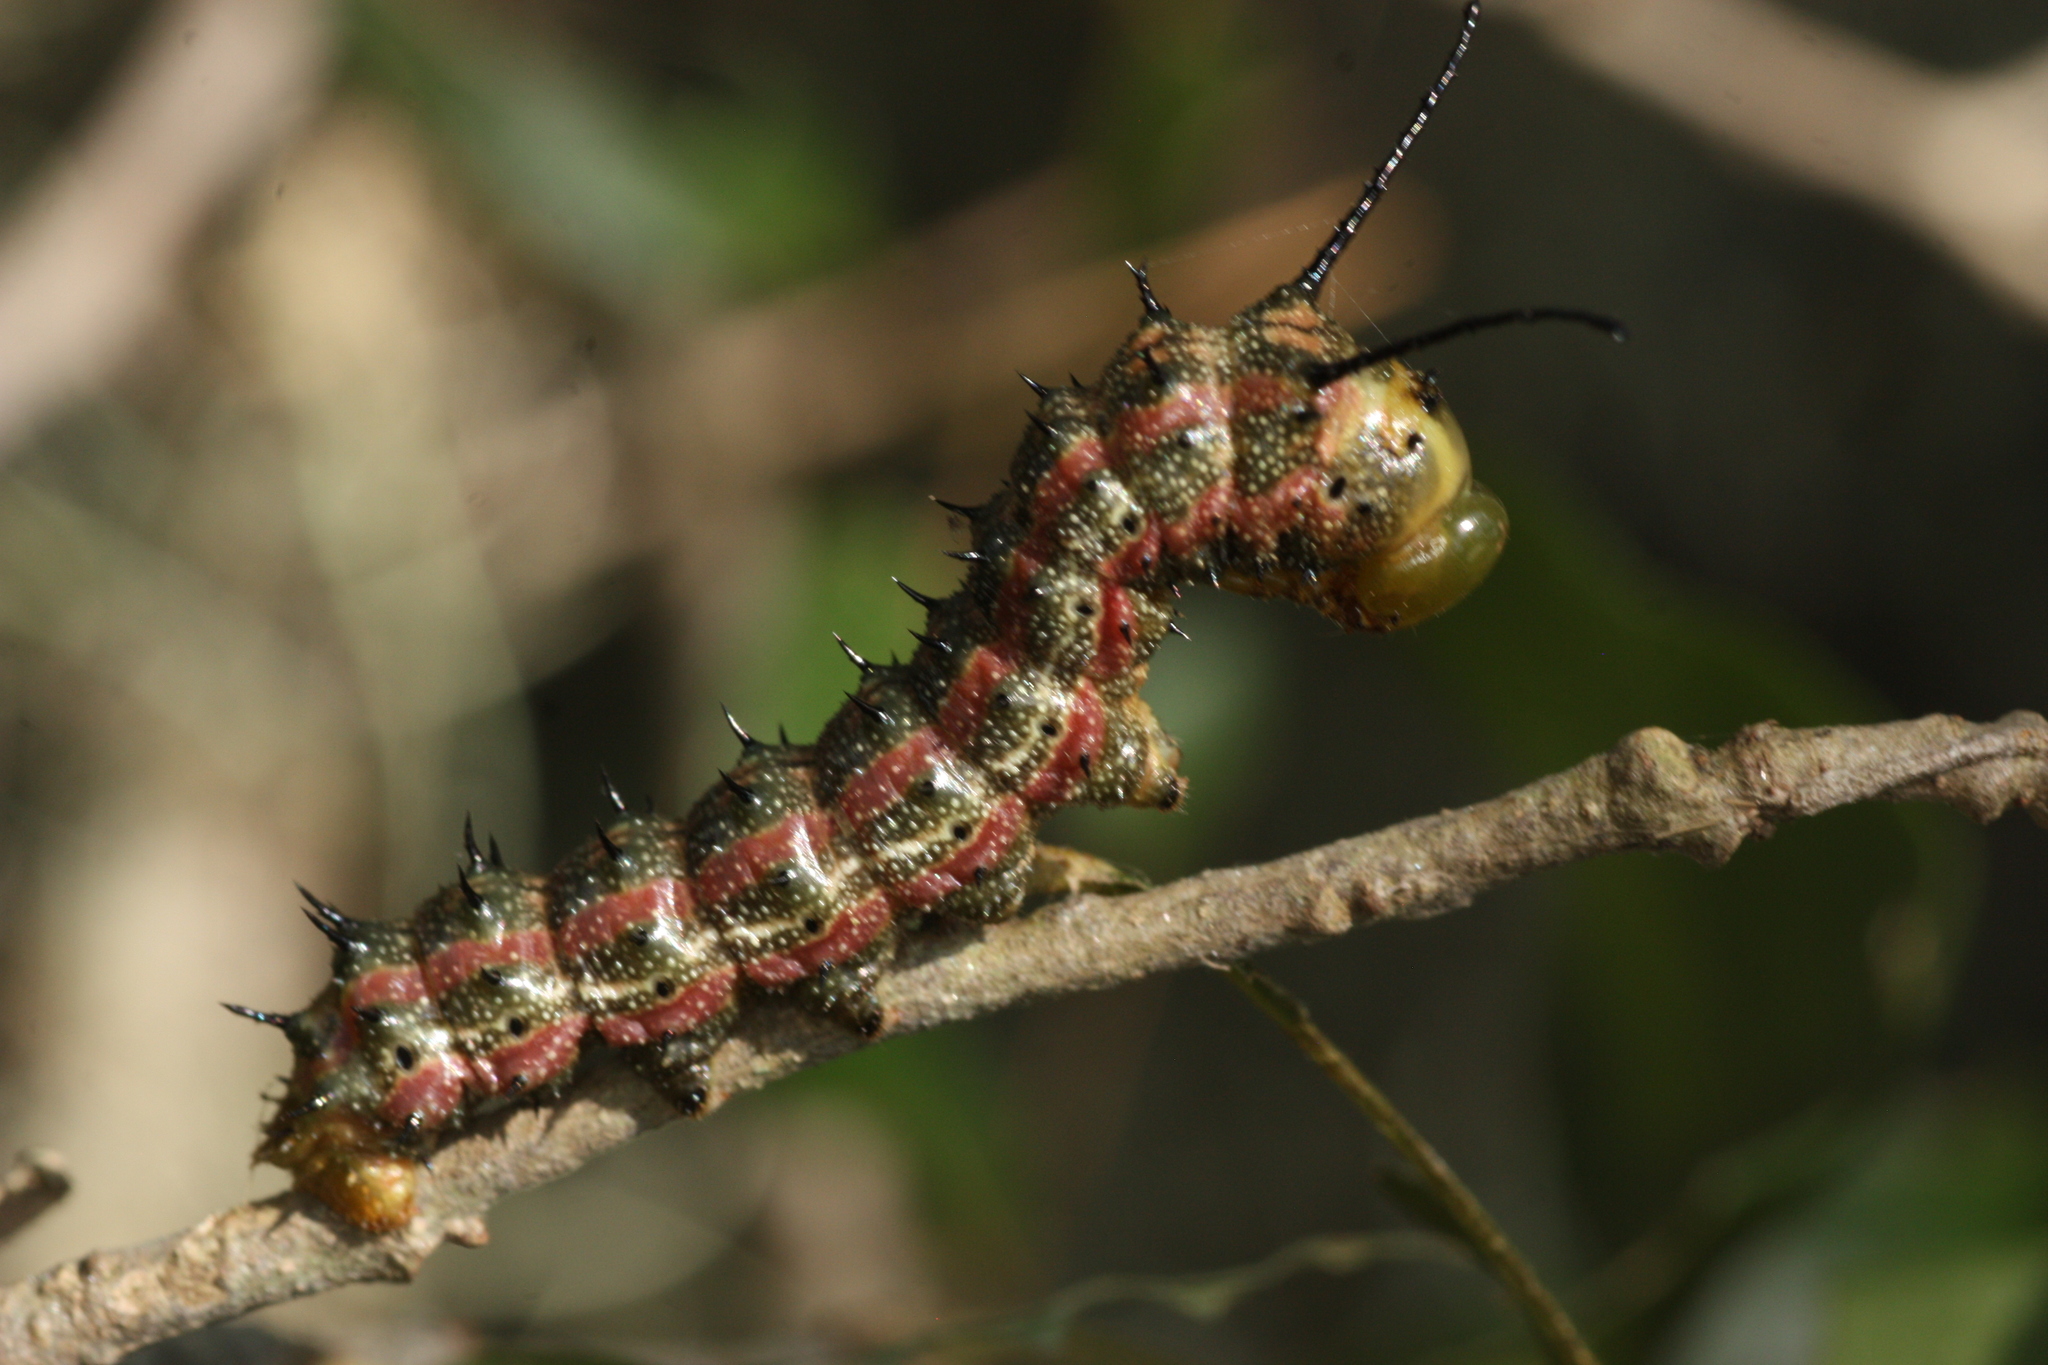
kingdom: Animalia
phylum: Arthropoda
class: Insecta
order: Lepidoptera
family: Saturniidae
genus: Anisota
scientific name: Anisota virginiensis
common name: Pink striped oakworm moth
